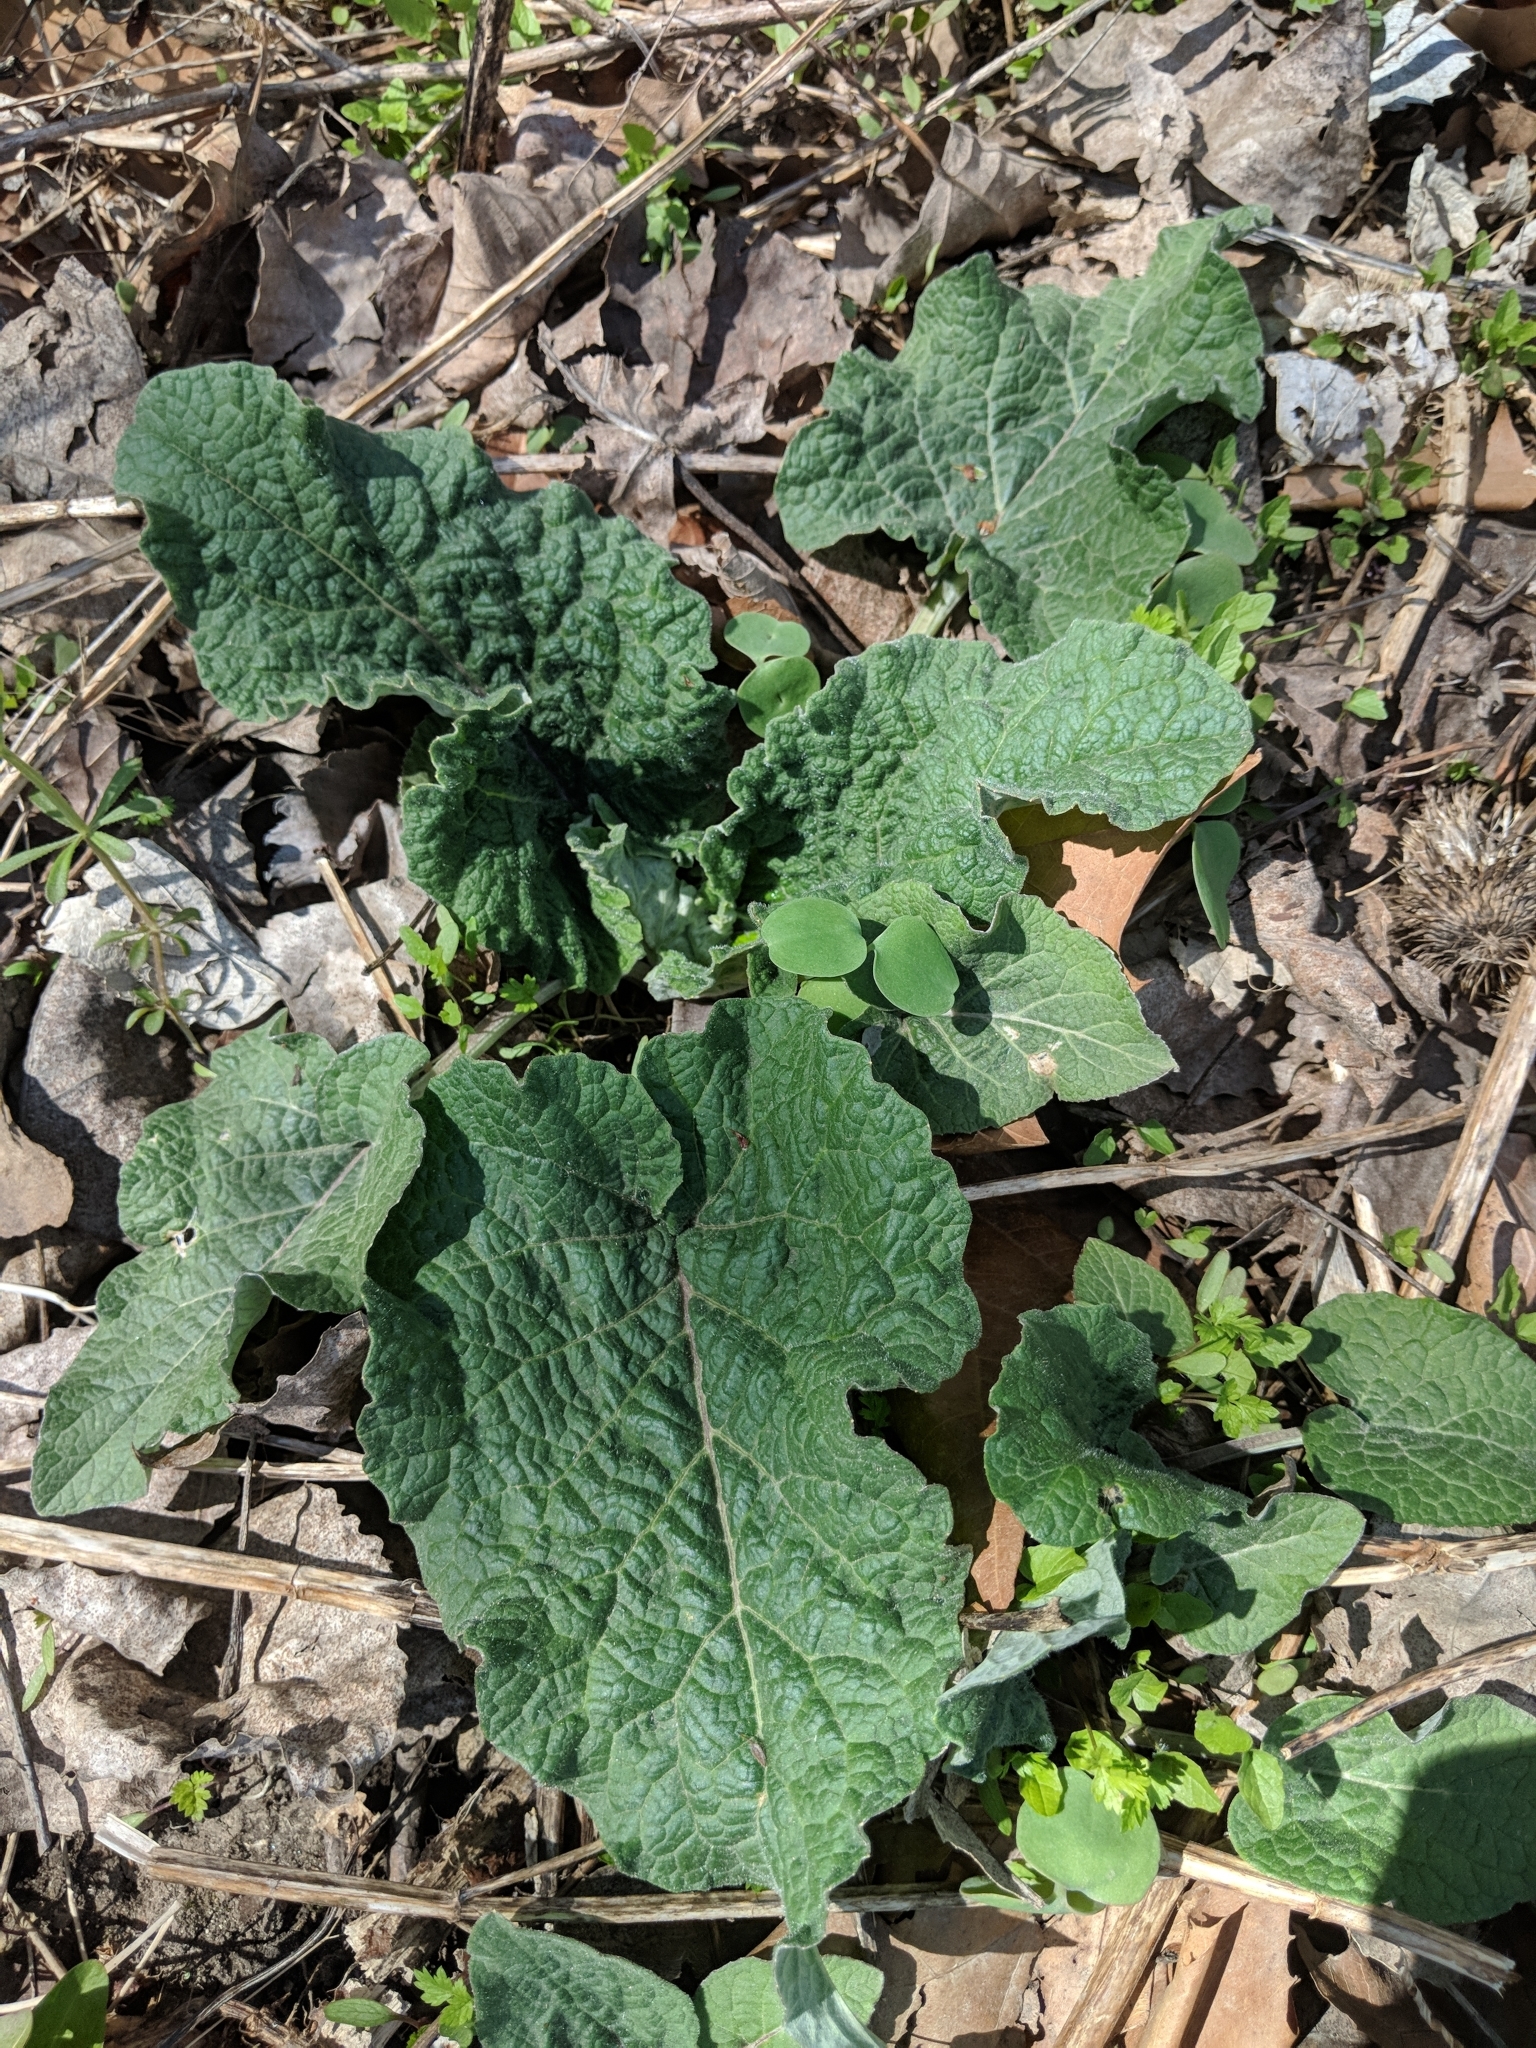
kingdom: Plantae
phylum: Tracheophyta
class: Magnoliopsida
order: Asterales
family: Asteraceae
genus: Arctium
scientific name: Arctium minus
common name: Lesser burdock
